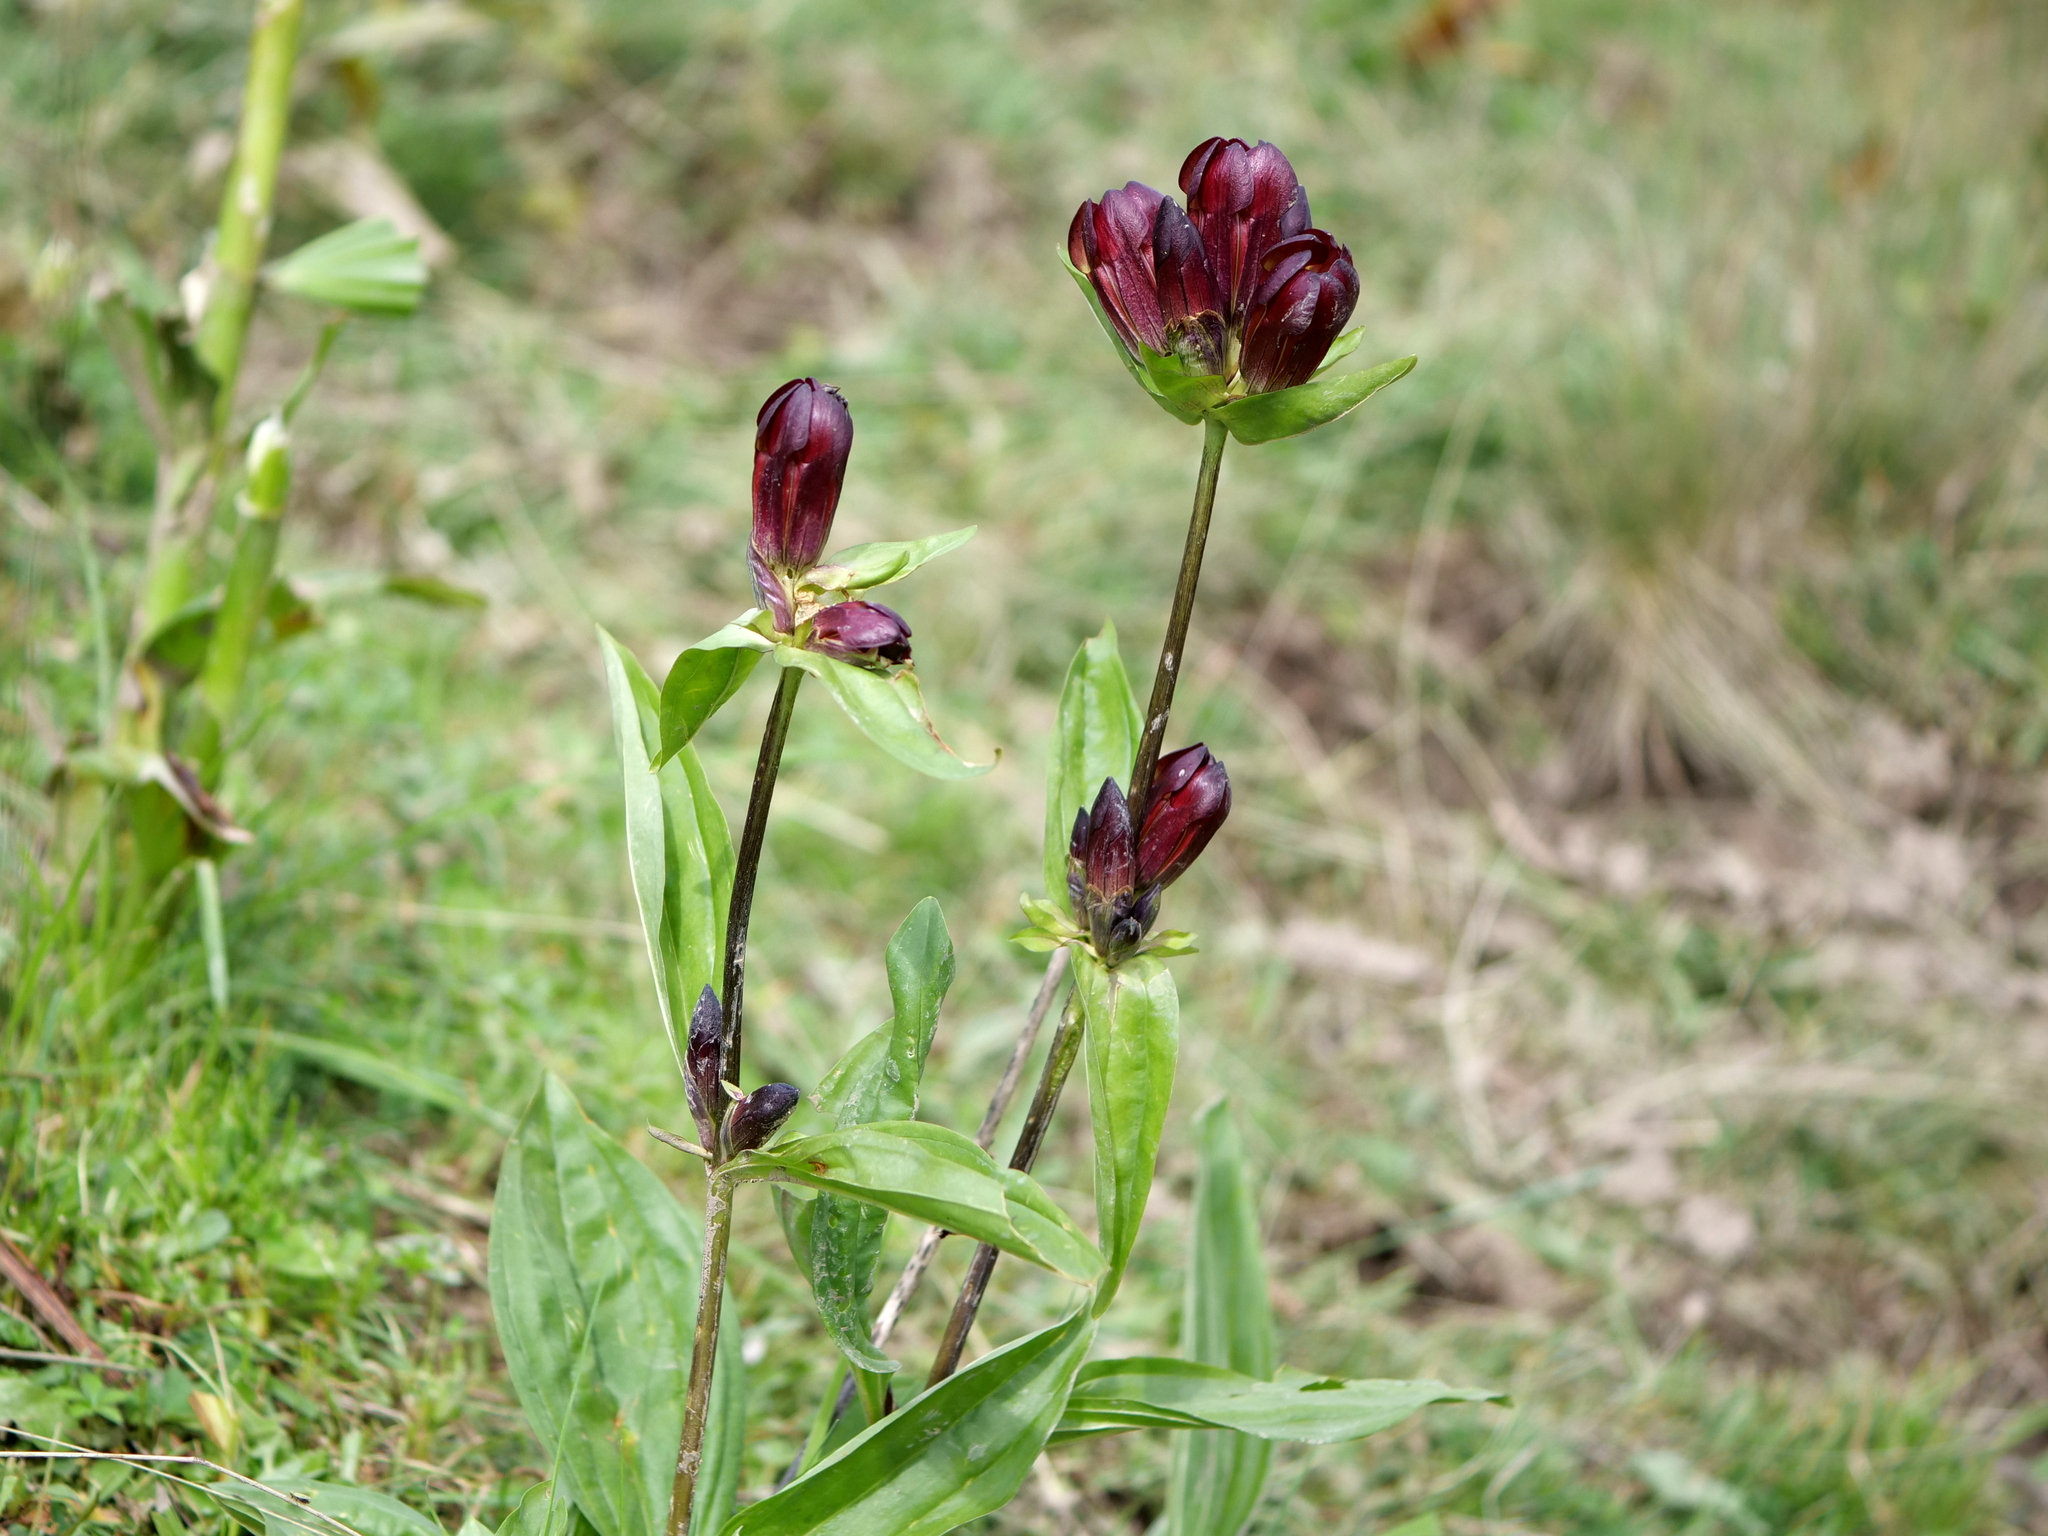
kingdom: Plantae
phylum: Tracheophyta
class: Magnoliopsida
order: Gentianales
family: Gentianaceae
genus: Gentiana
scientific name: Gentiana purpurea
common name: Purple gentian
